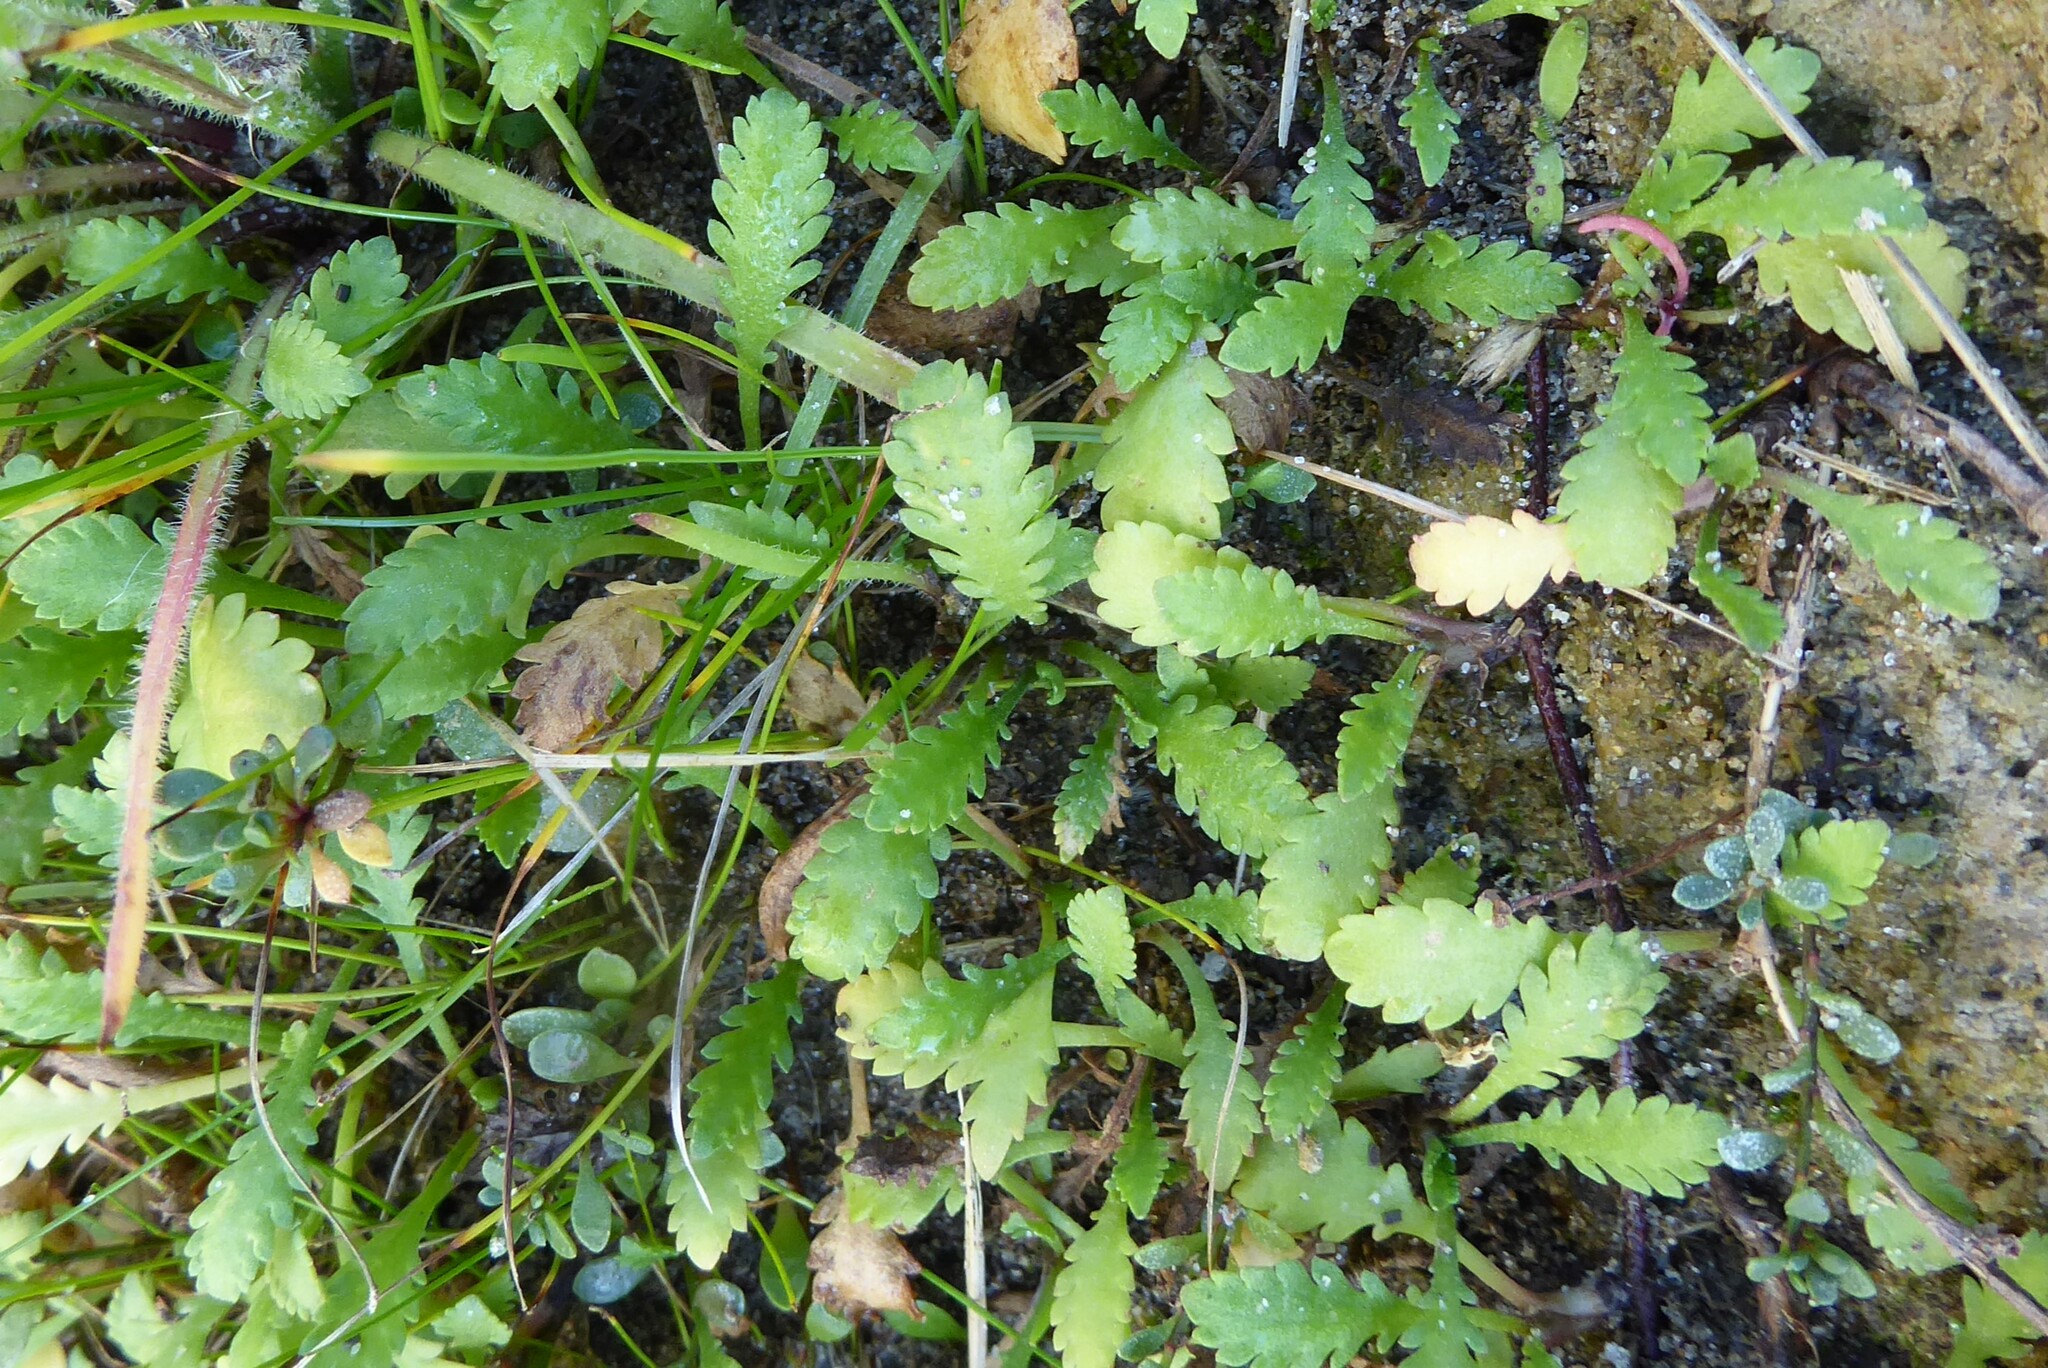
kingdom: Plantae
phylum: Tracheophyta
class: Magnoliopsida
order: Asterales
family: Asteraceae
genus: Leptinella
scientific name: Leptinella dioica
